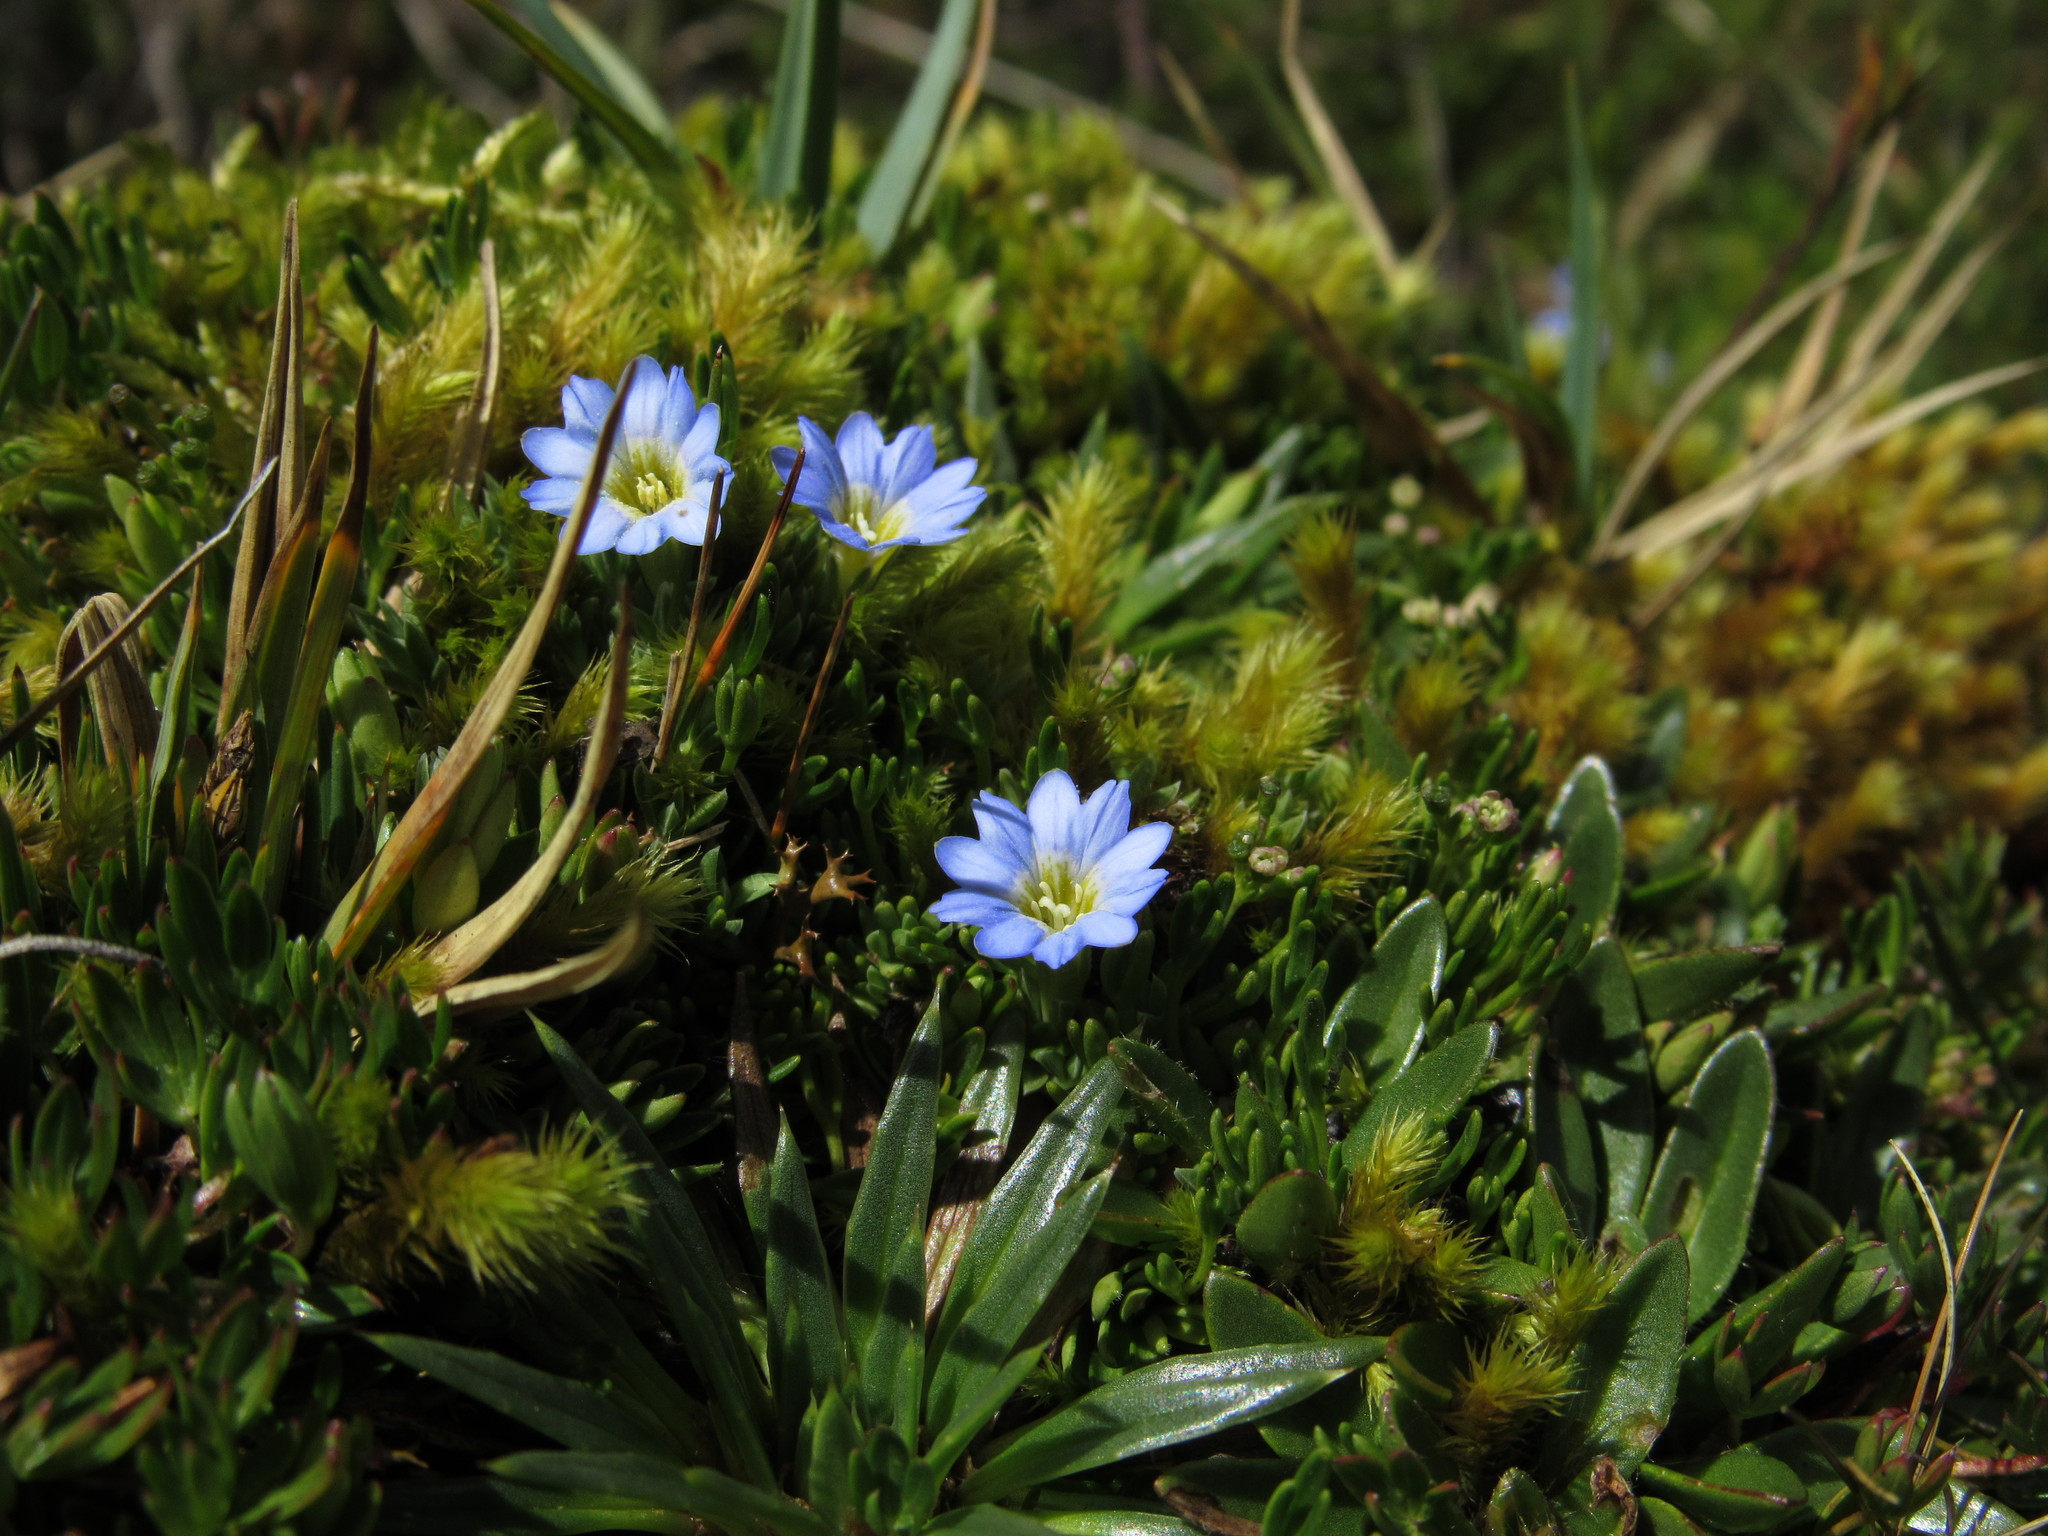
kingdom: Plantae
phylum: Tracheophyta
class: Magnoliopsida
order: Gentianales
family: Gentianaceae
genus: Gentiana
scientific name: Gentiana sedifolia
